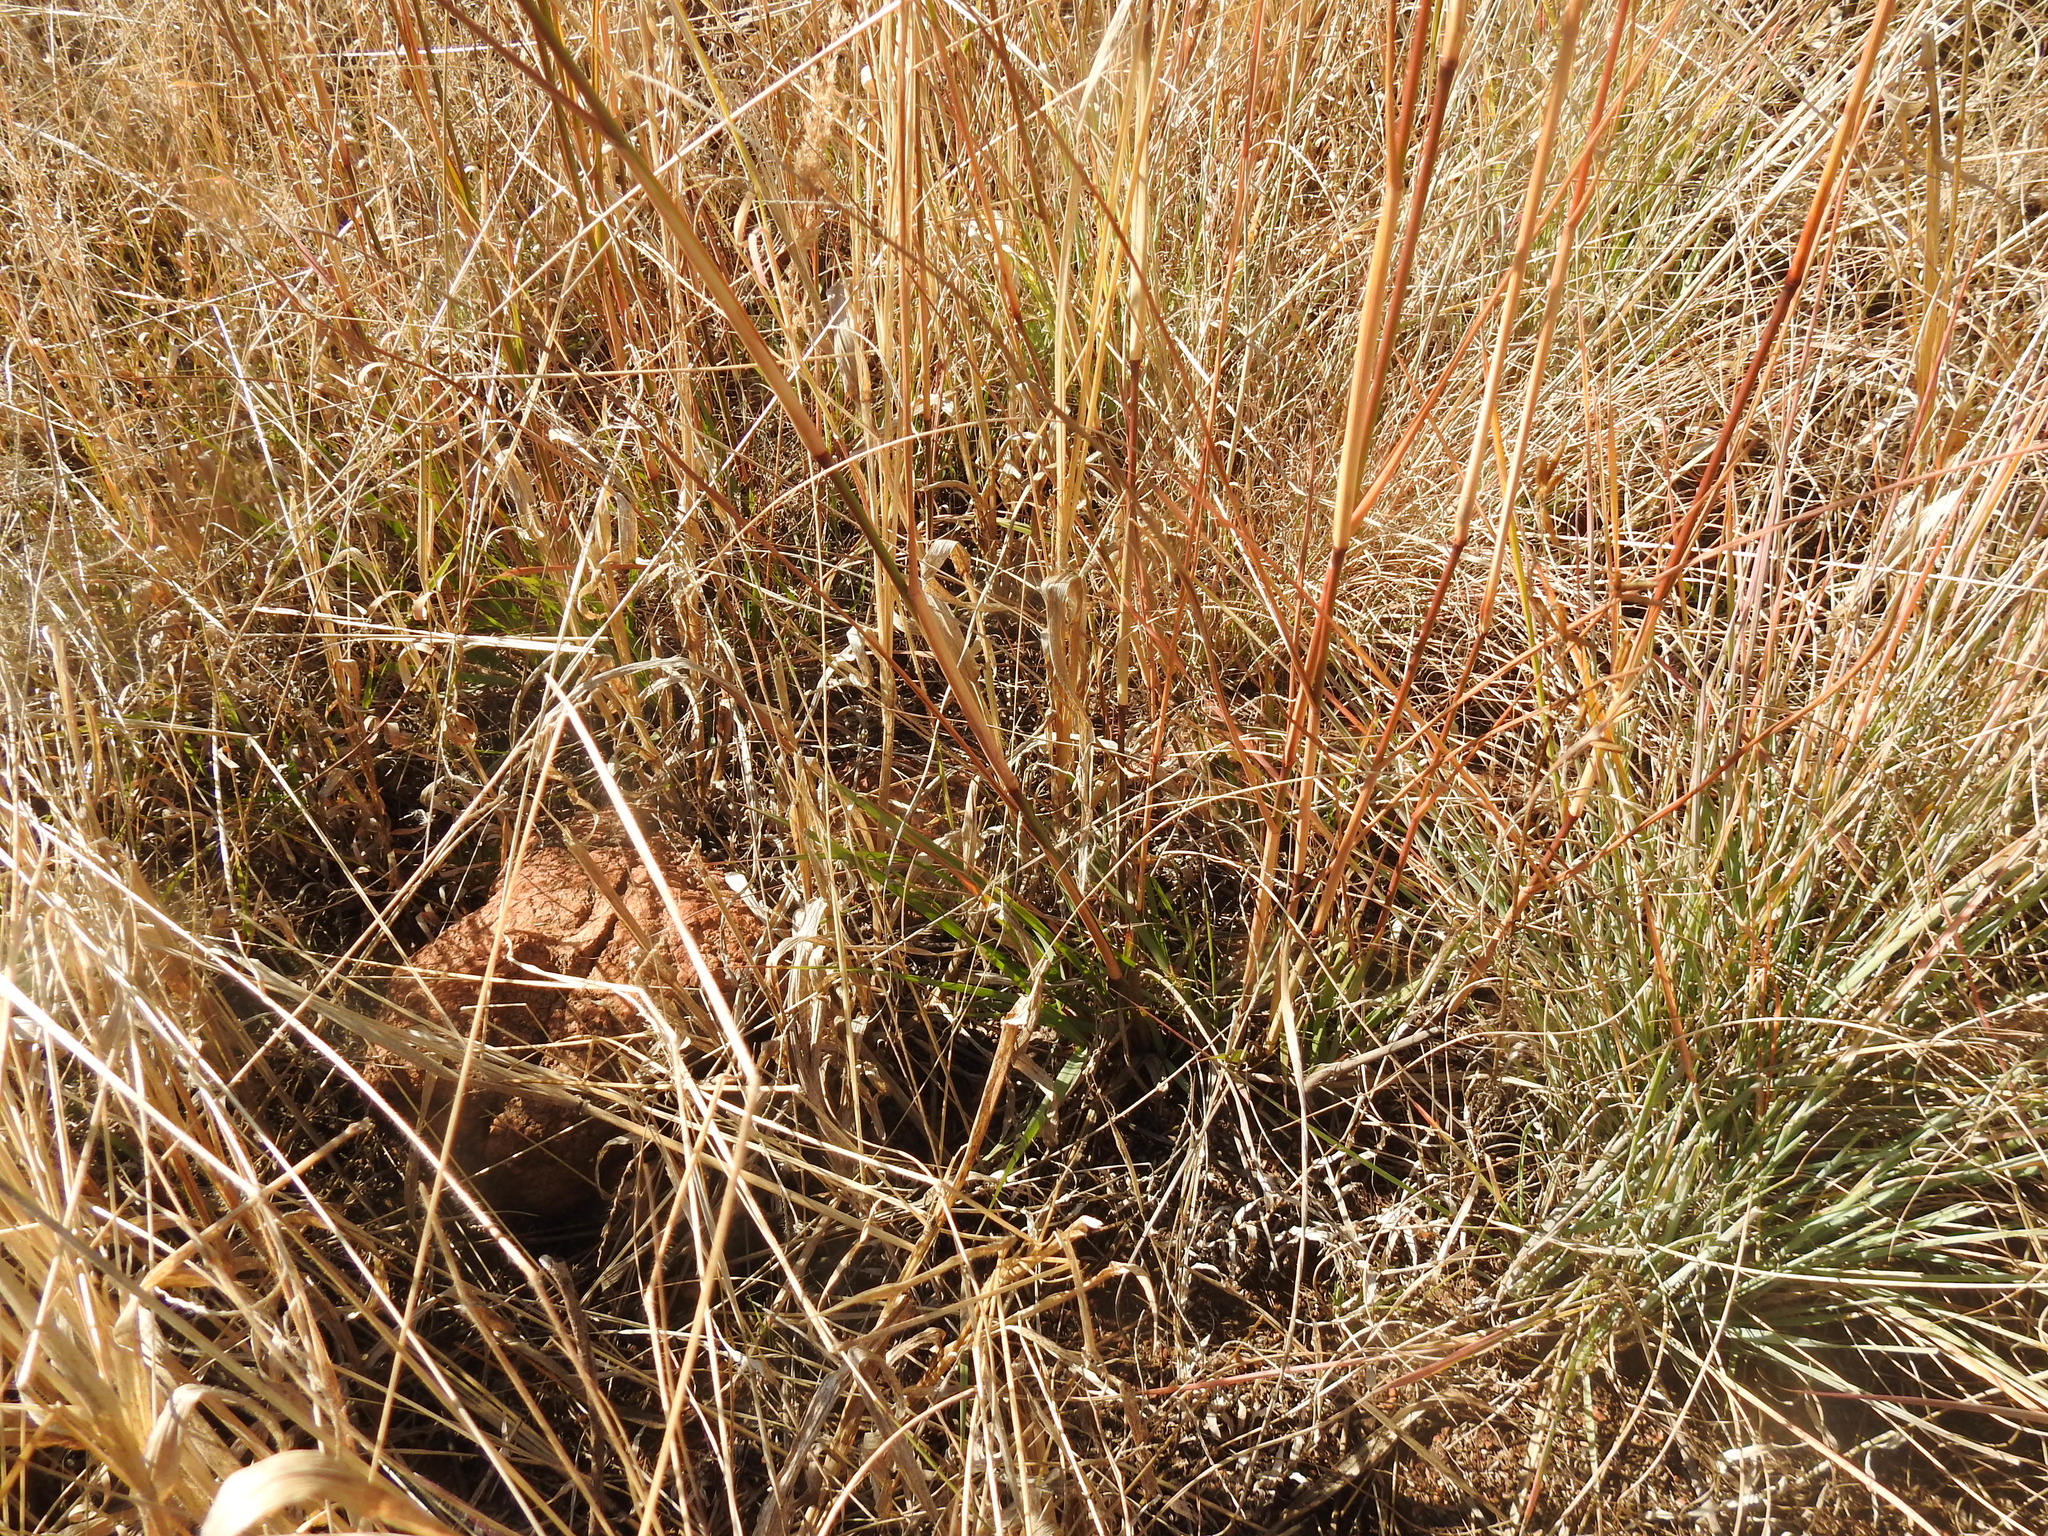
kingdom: Plantae
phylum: Tracheophyta
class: Liliopsida
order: Poales
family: Poaceae
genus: Triraphis
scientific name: Triraphis schinzii
